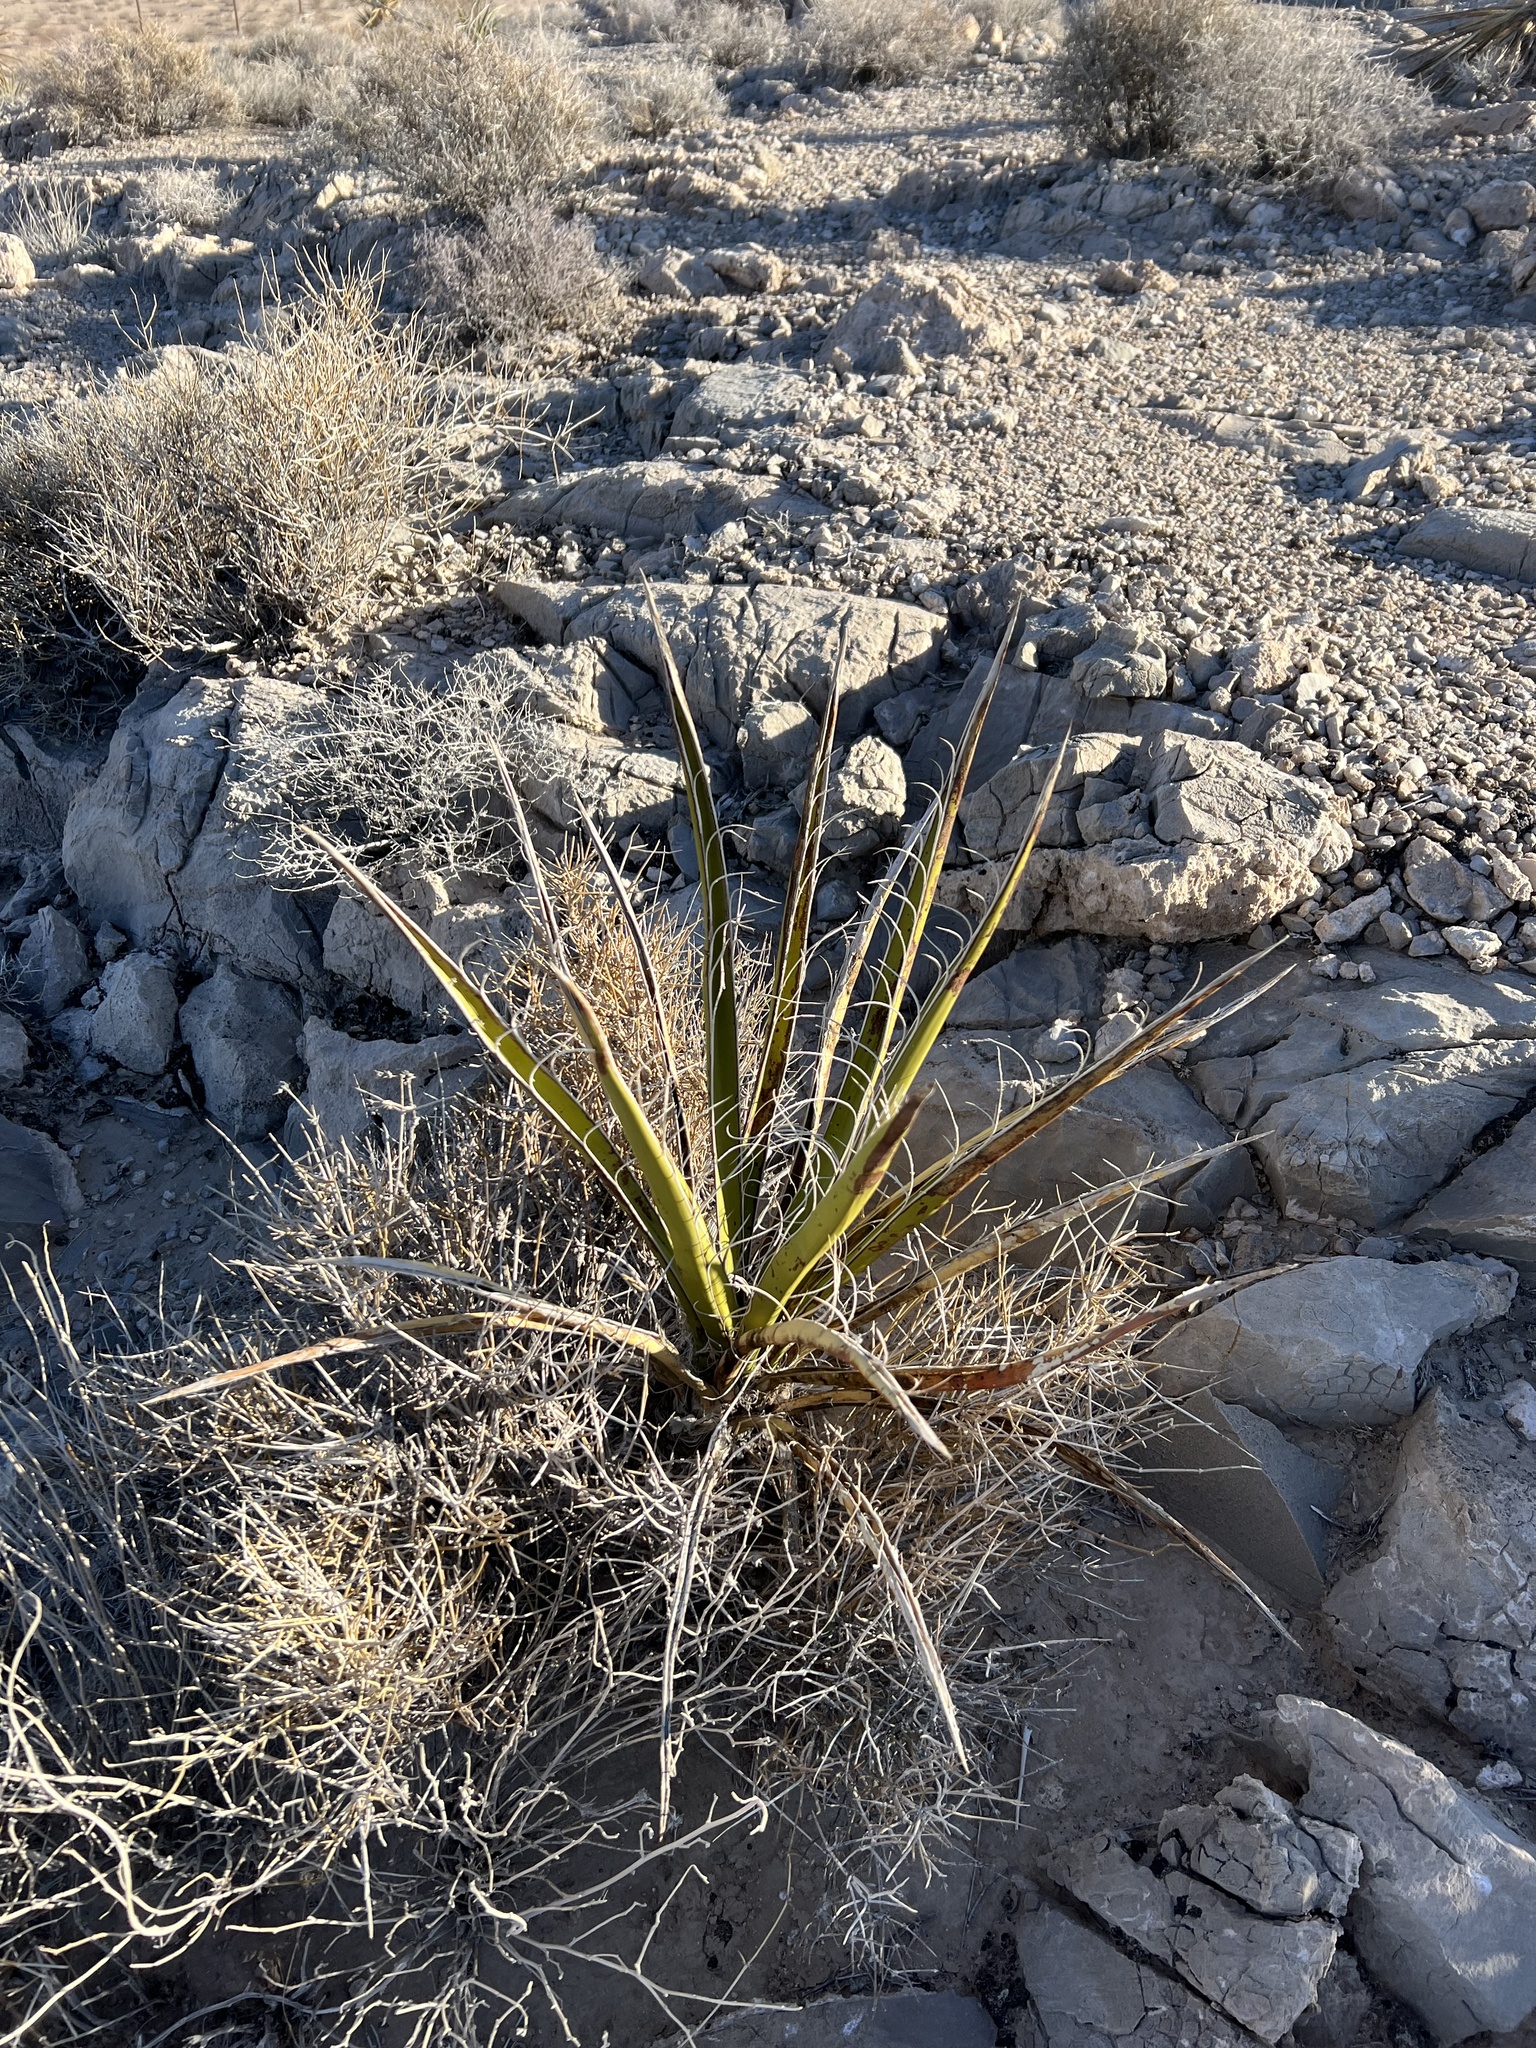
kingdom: Plantae
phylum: Tracheophyta
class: Liliopsida
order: Asparagales
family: Asparagaceae
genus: Yucca
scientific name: Yucca schidigera
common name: Mojave yucca
